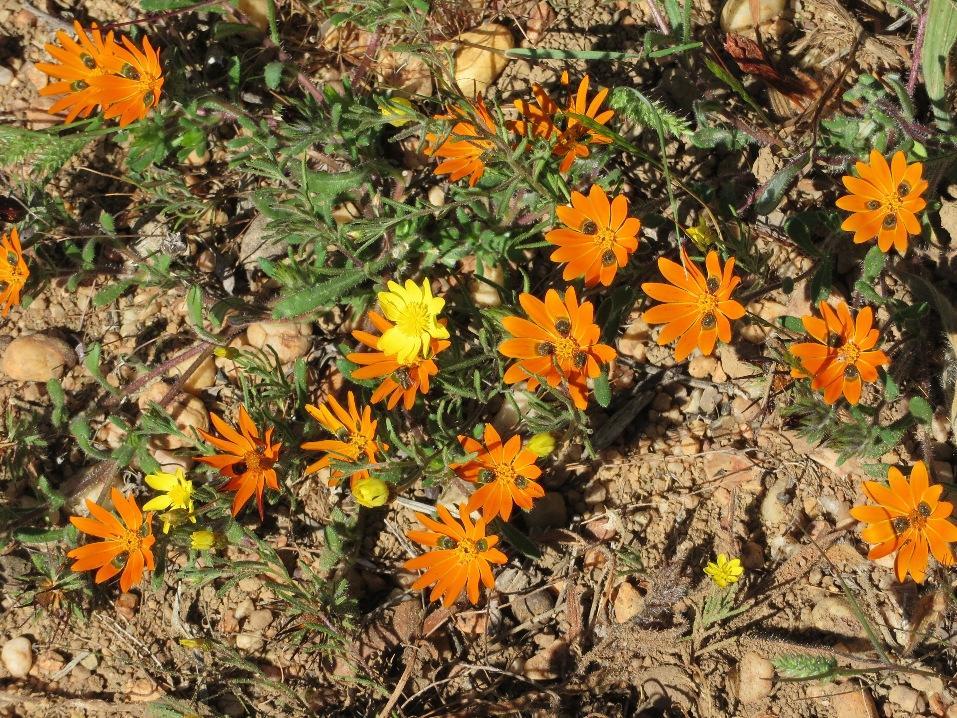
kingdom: Plantae
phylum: Tracheophyta
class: Magnoliopsida
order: Asterales
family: Asteraceae
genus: Gorteria
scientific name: Gorteria diffusa
